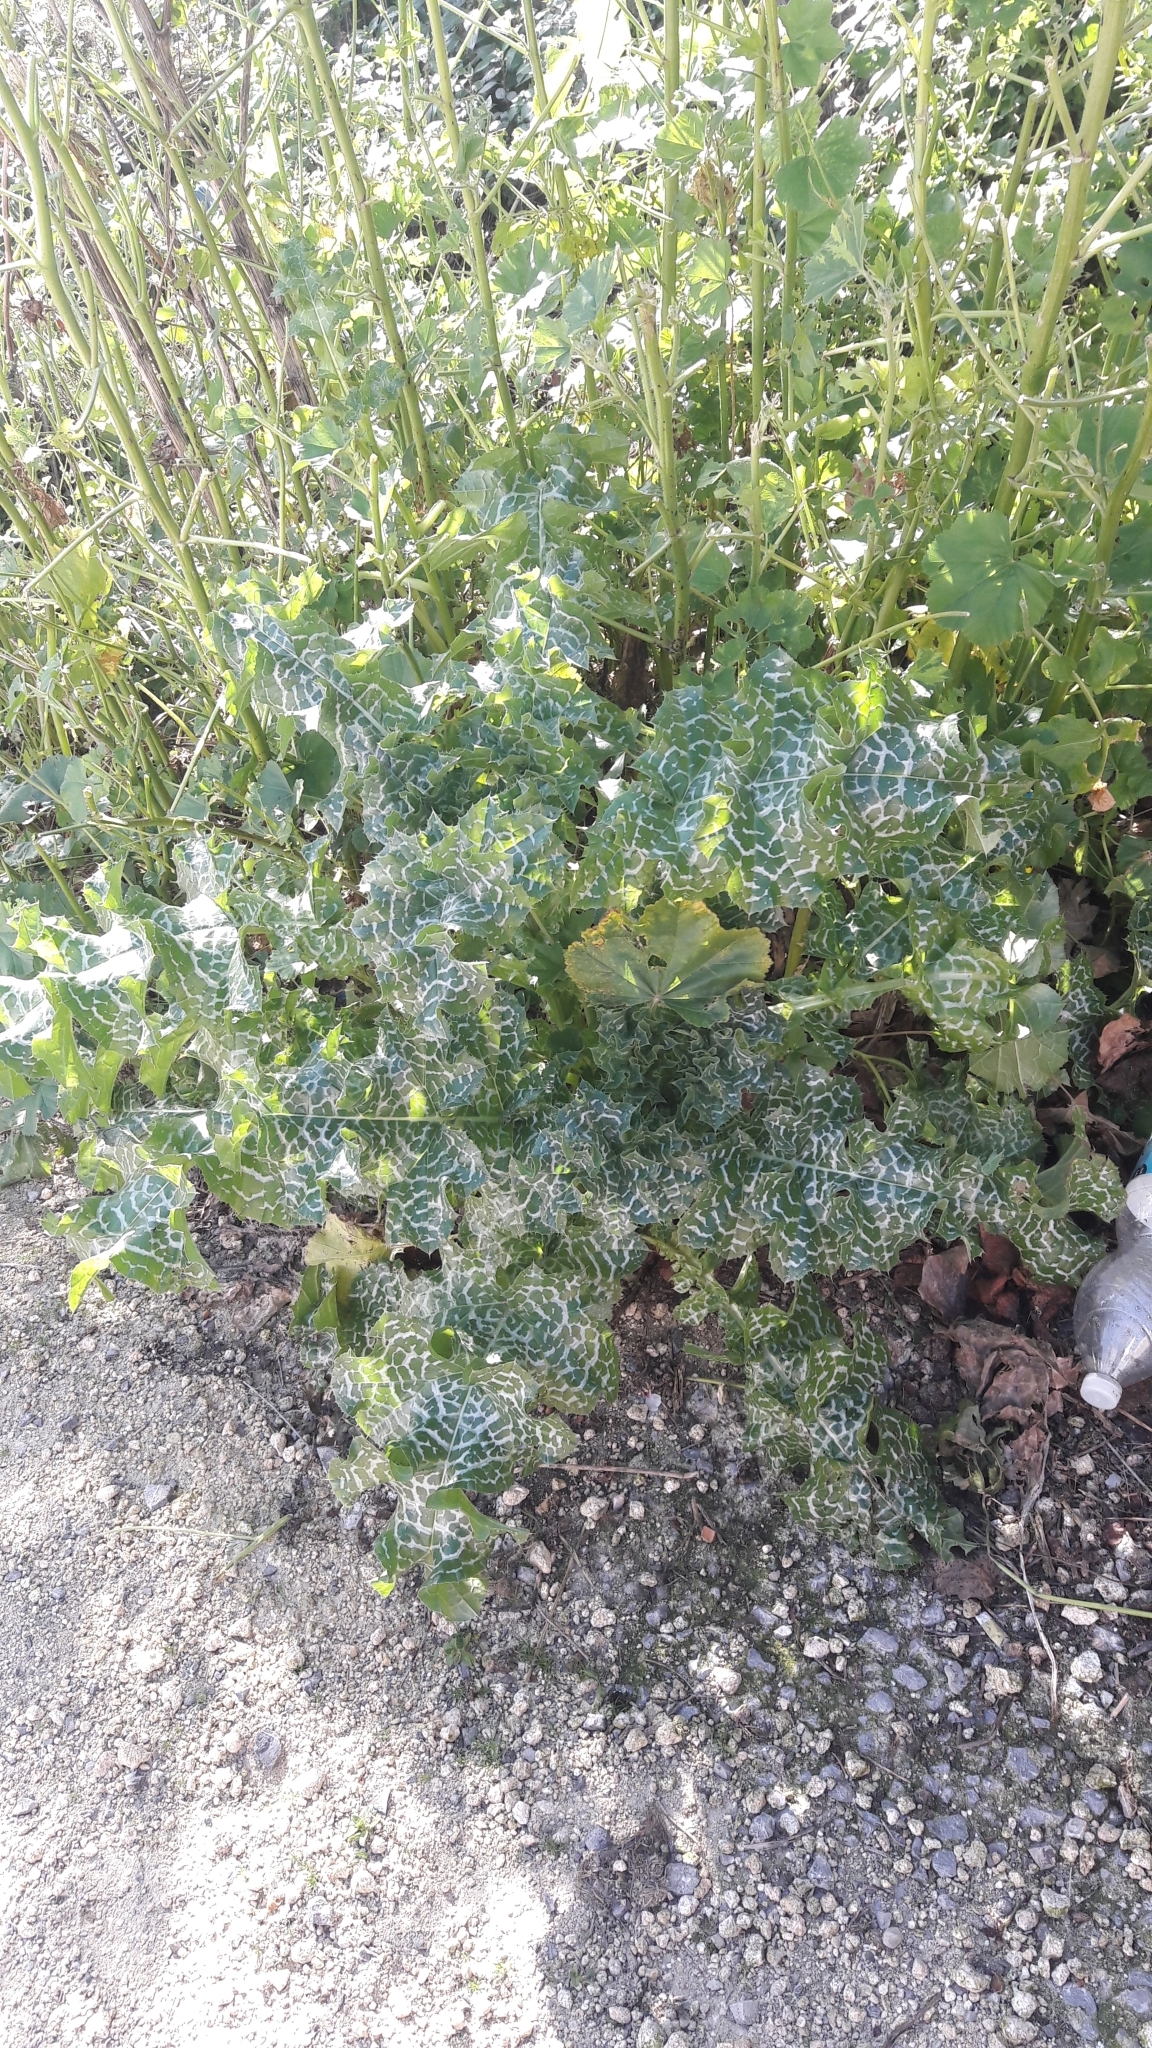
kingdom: Plantae
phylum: Tracheophyta
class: Magnoliopsida
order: Asterales
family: Asteraceae
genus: Silybum
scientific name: Silybum marianum
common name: Milk thistle
